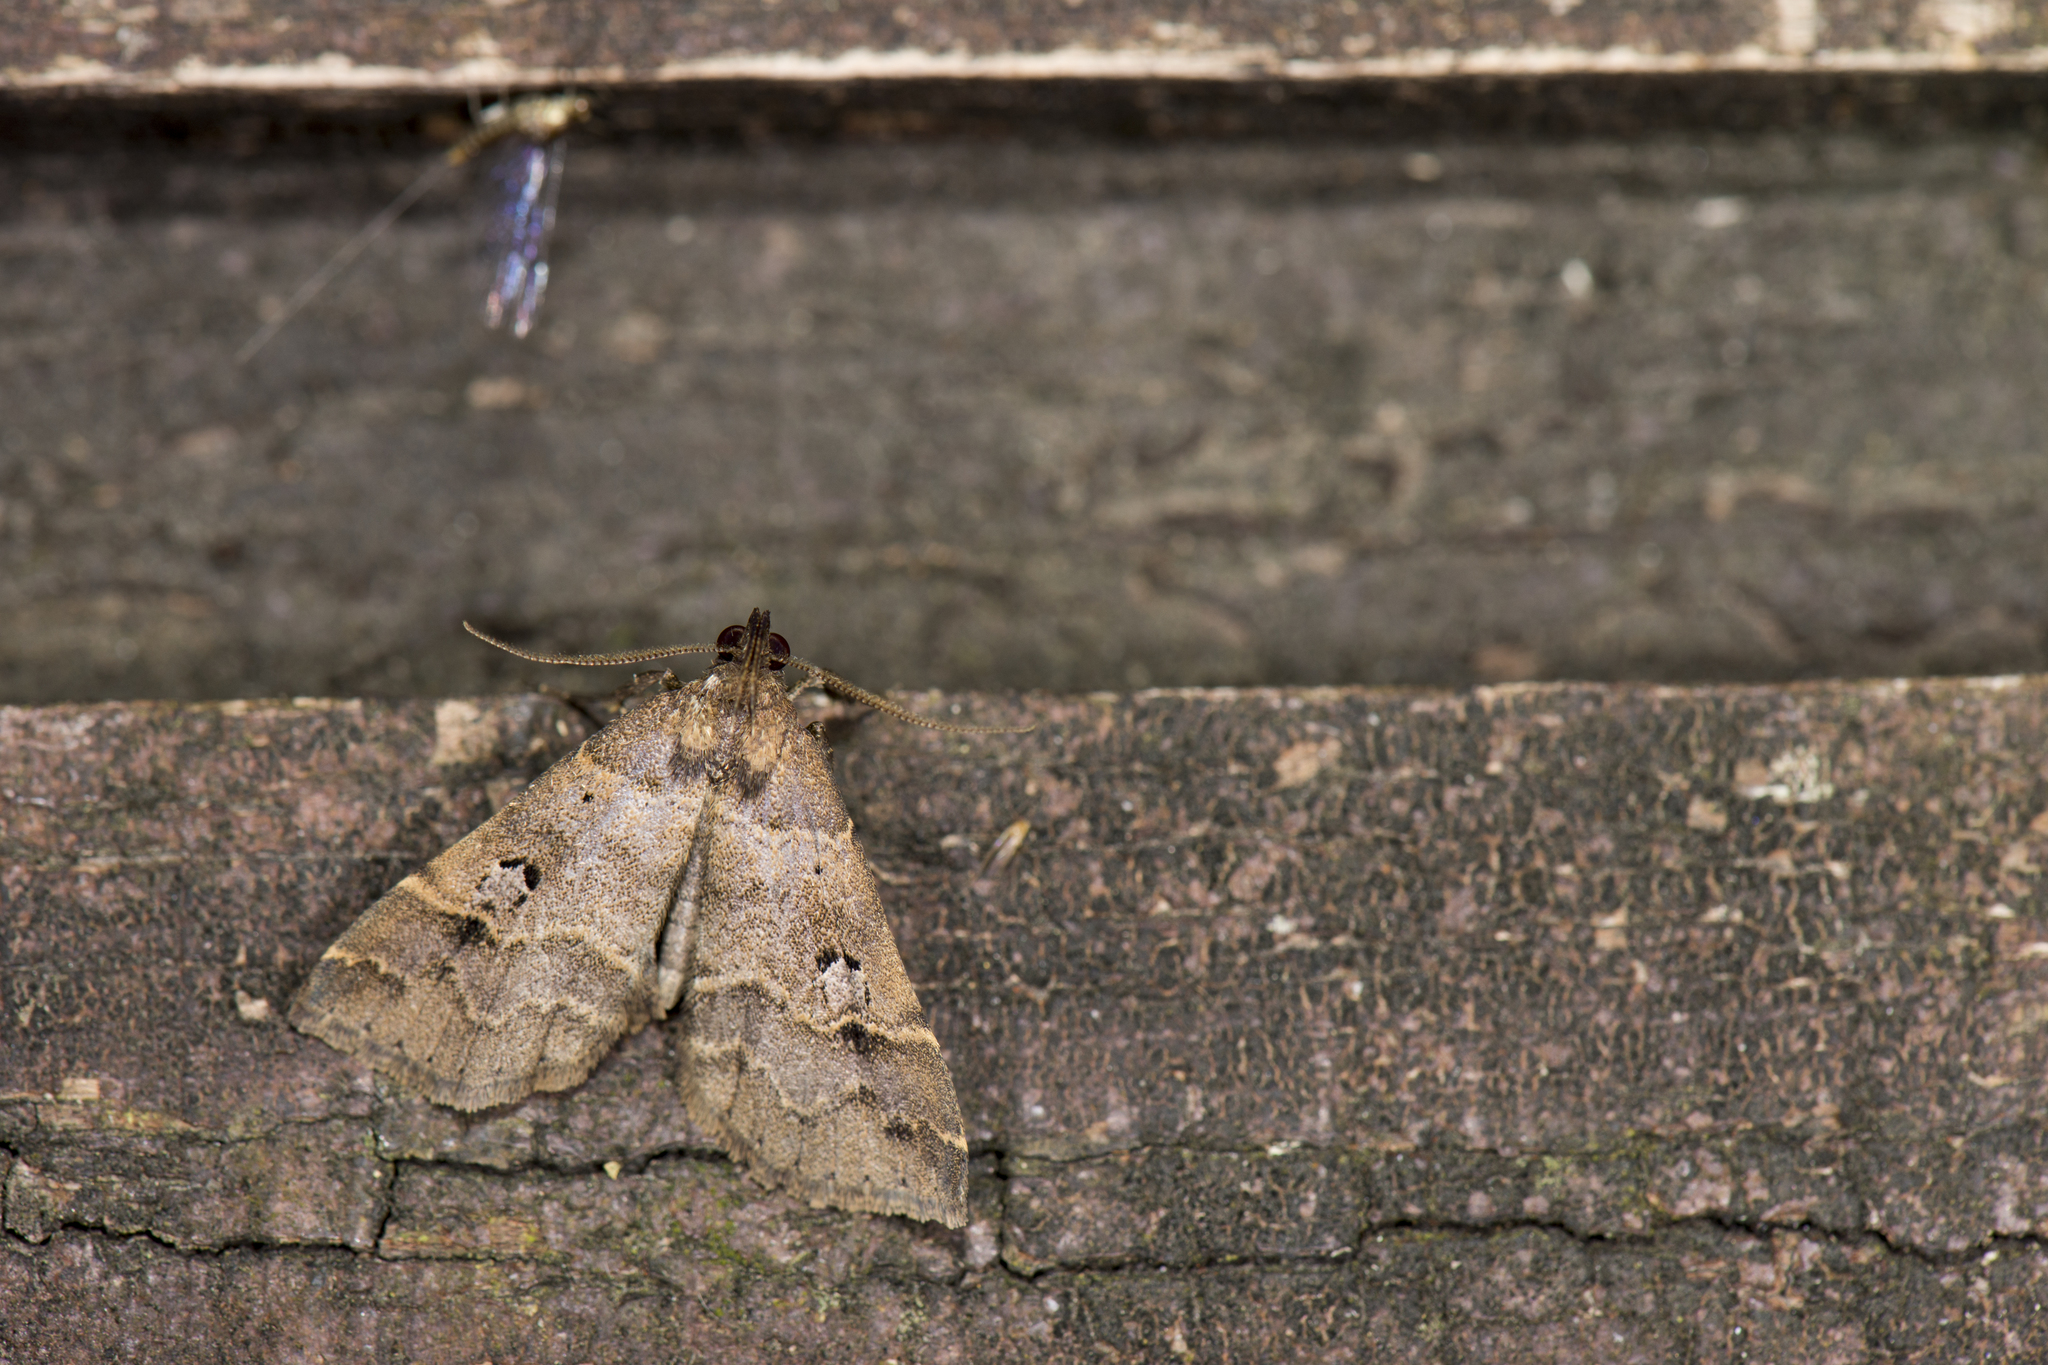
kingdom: Animalia
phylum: Arthropoda
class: Insecta
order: Lepidoptera
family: Erebidae
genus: Bertula
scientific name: Bertula hadenalis
